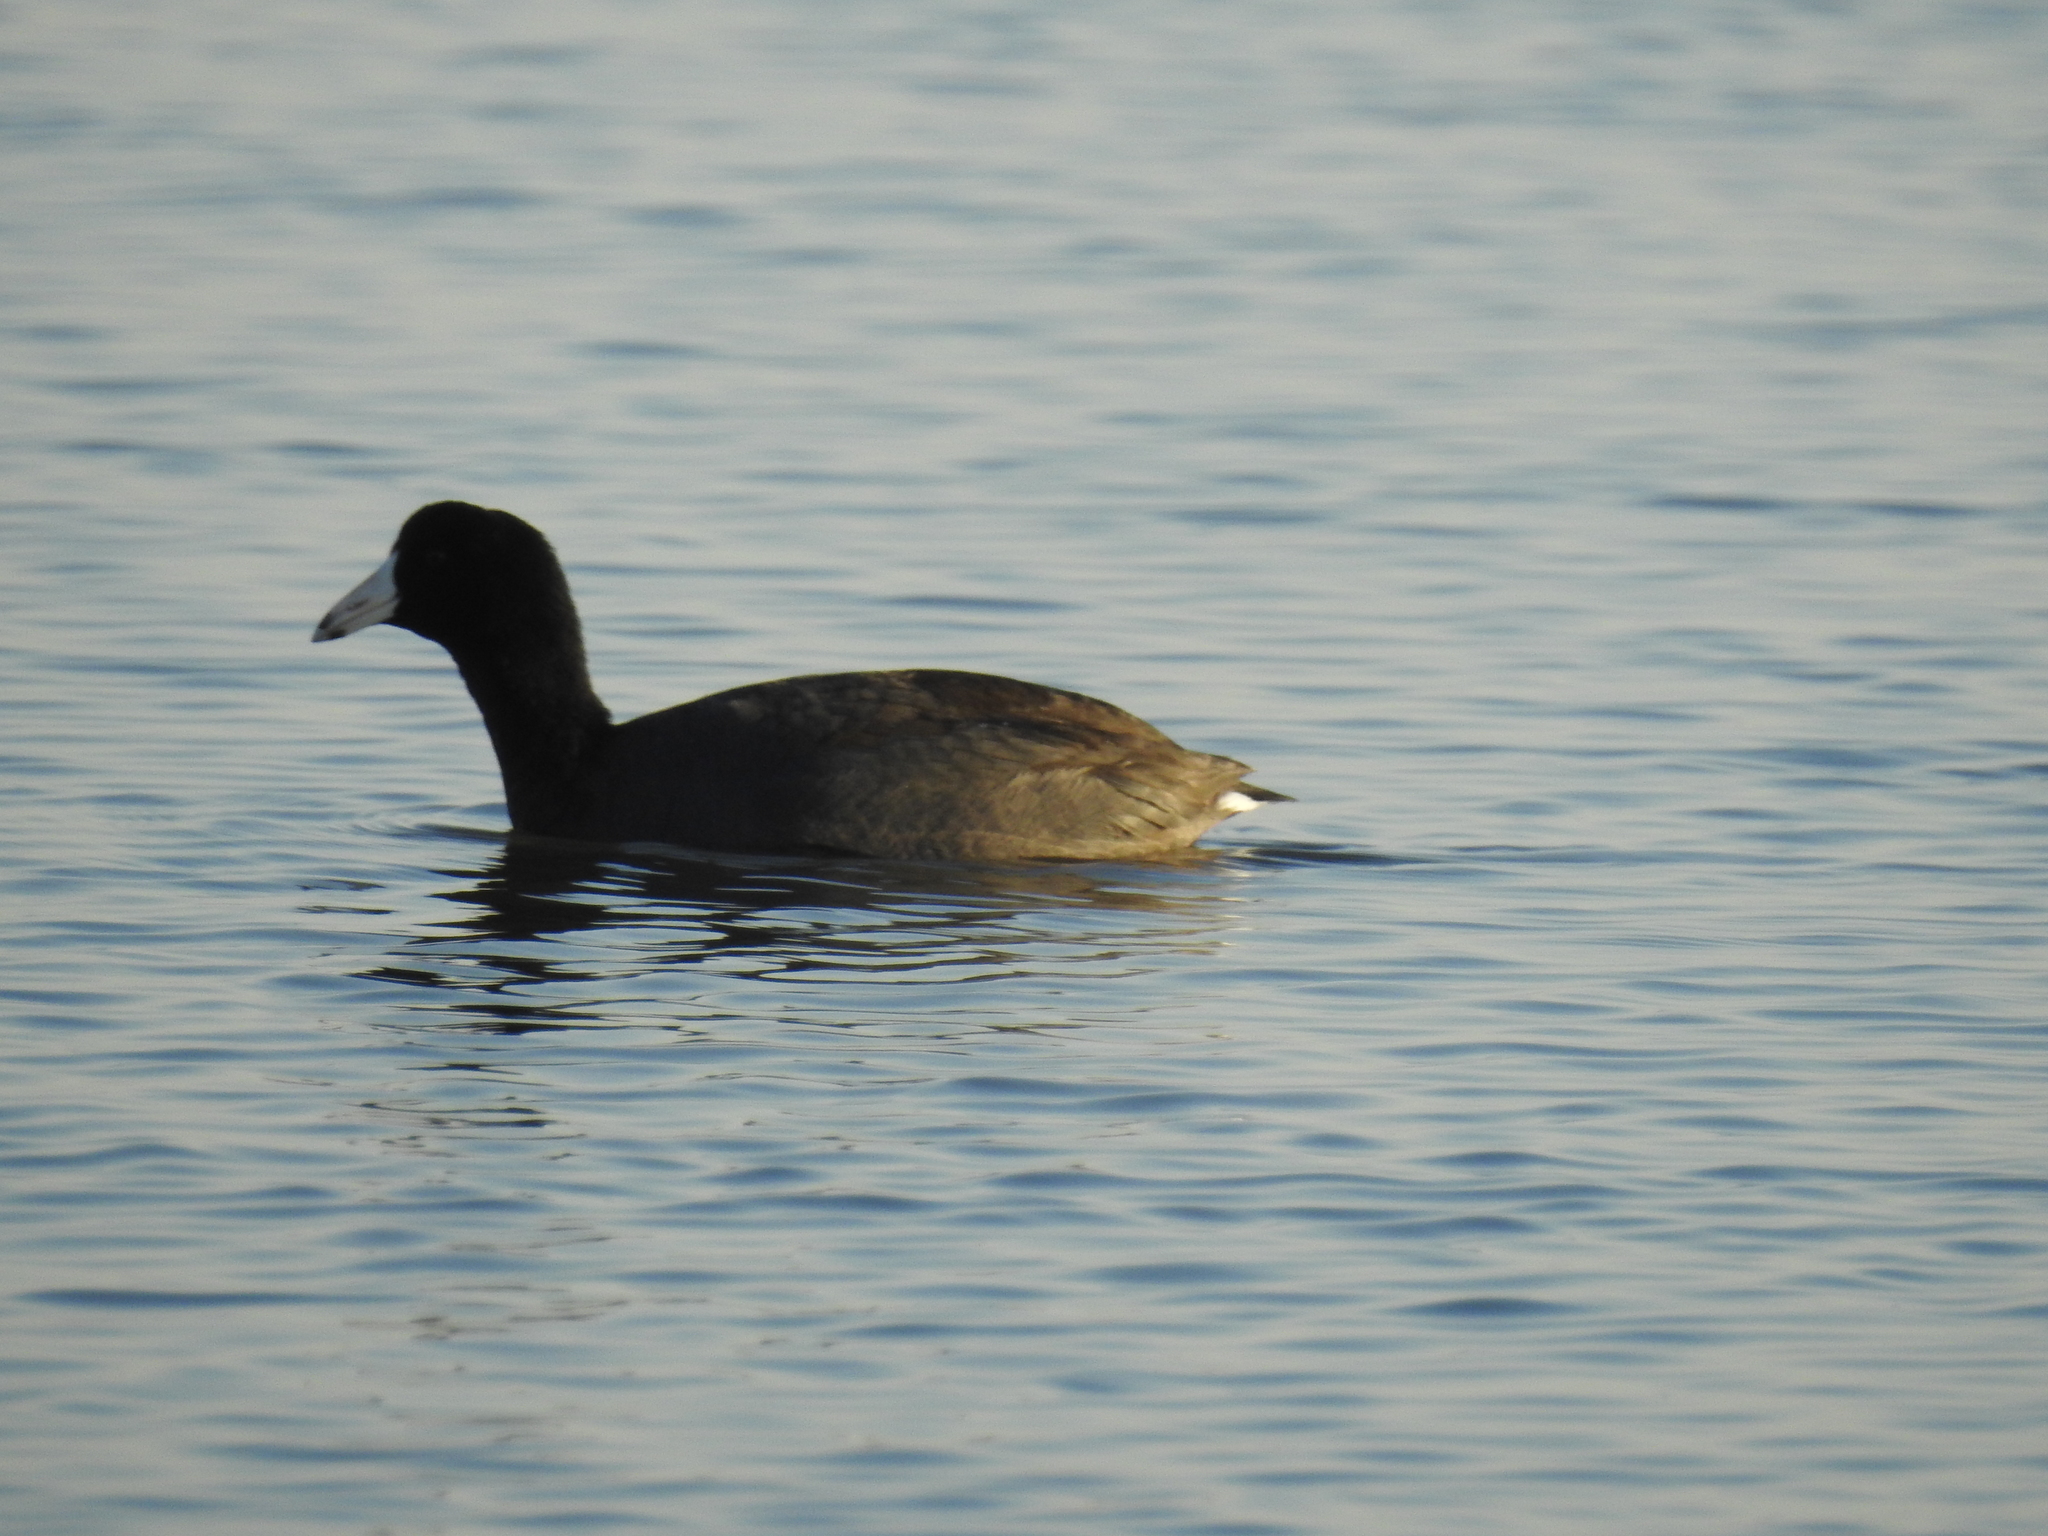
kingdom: Animalia
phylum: Chordata
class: Aves
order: Gruiformes
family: Rallidae
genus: Fulica
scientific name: Fulica americana
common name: American coot
